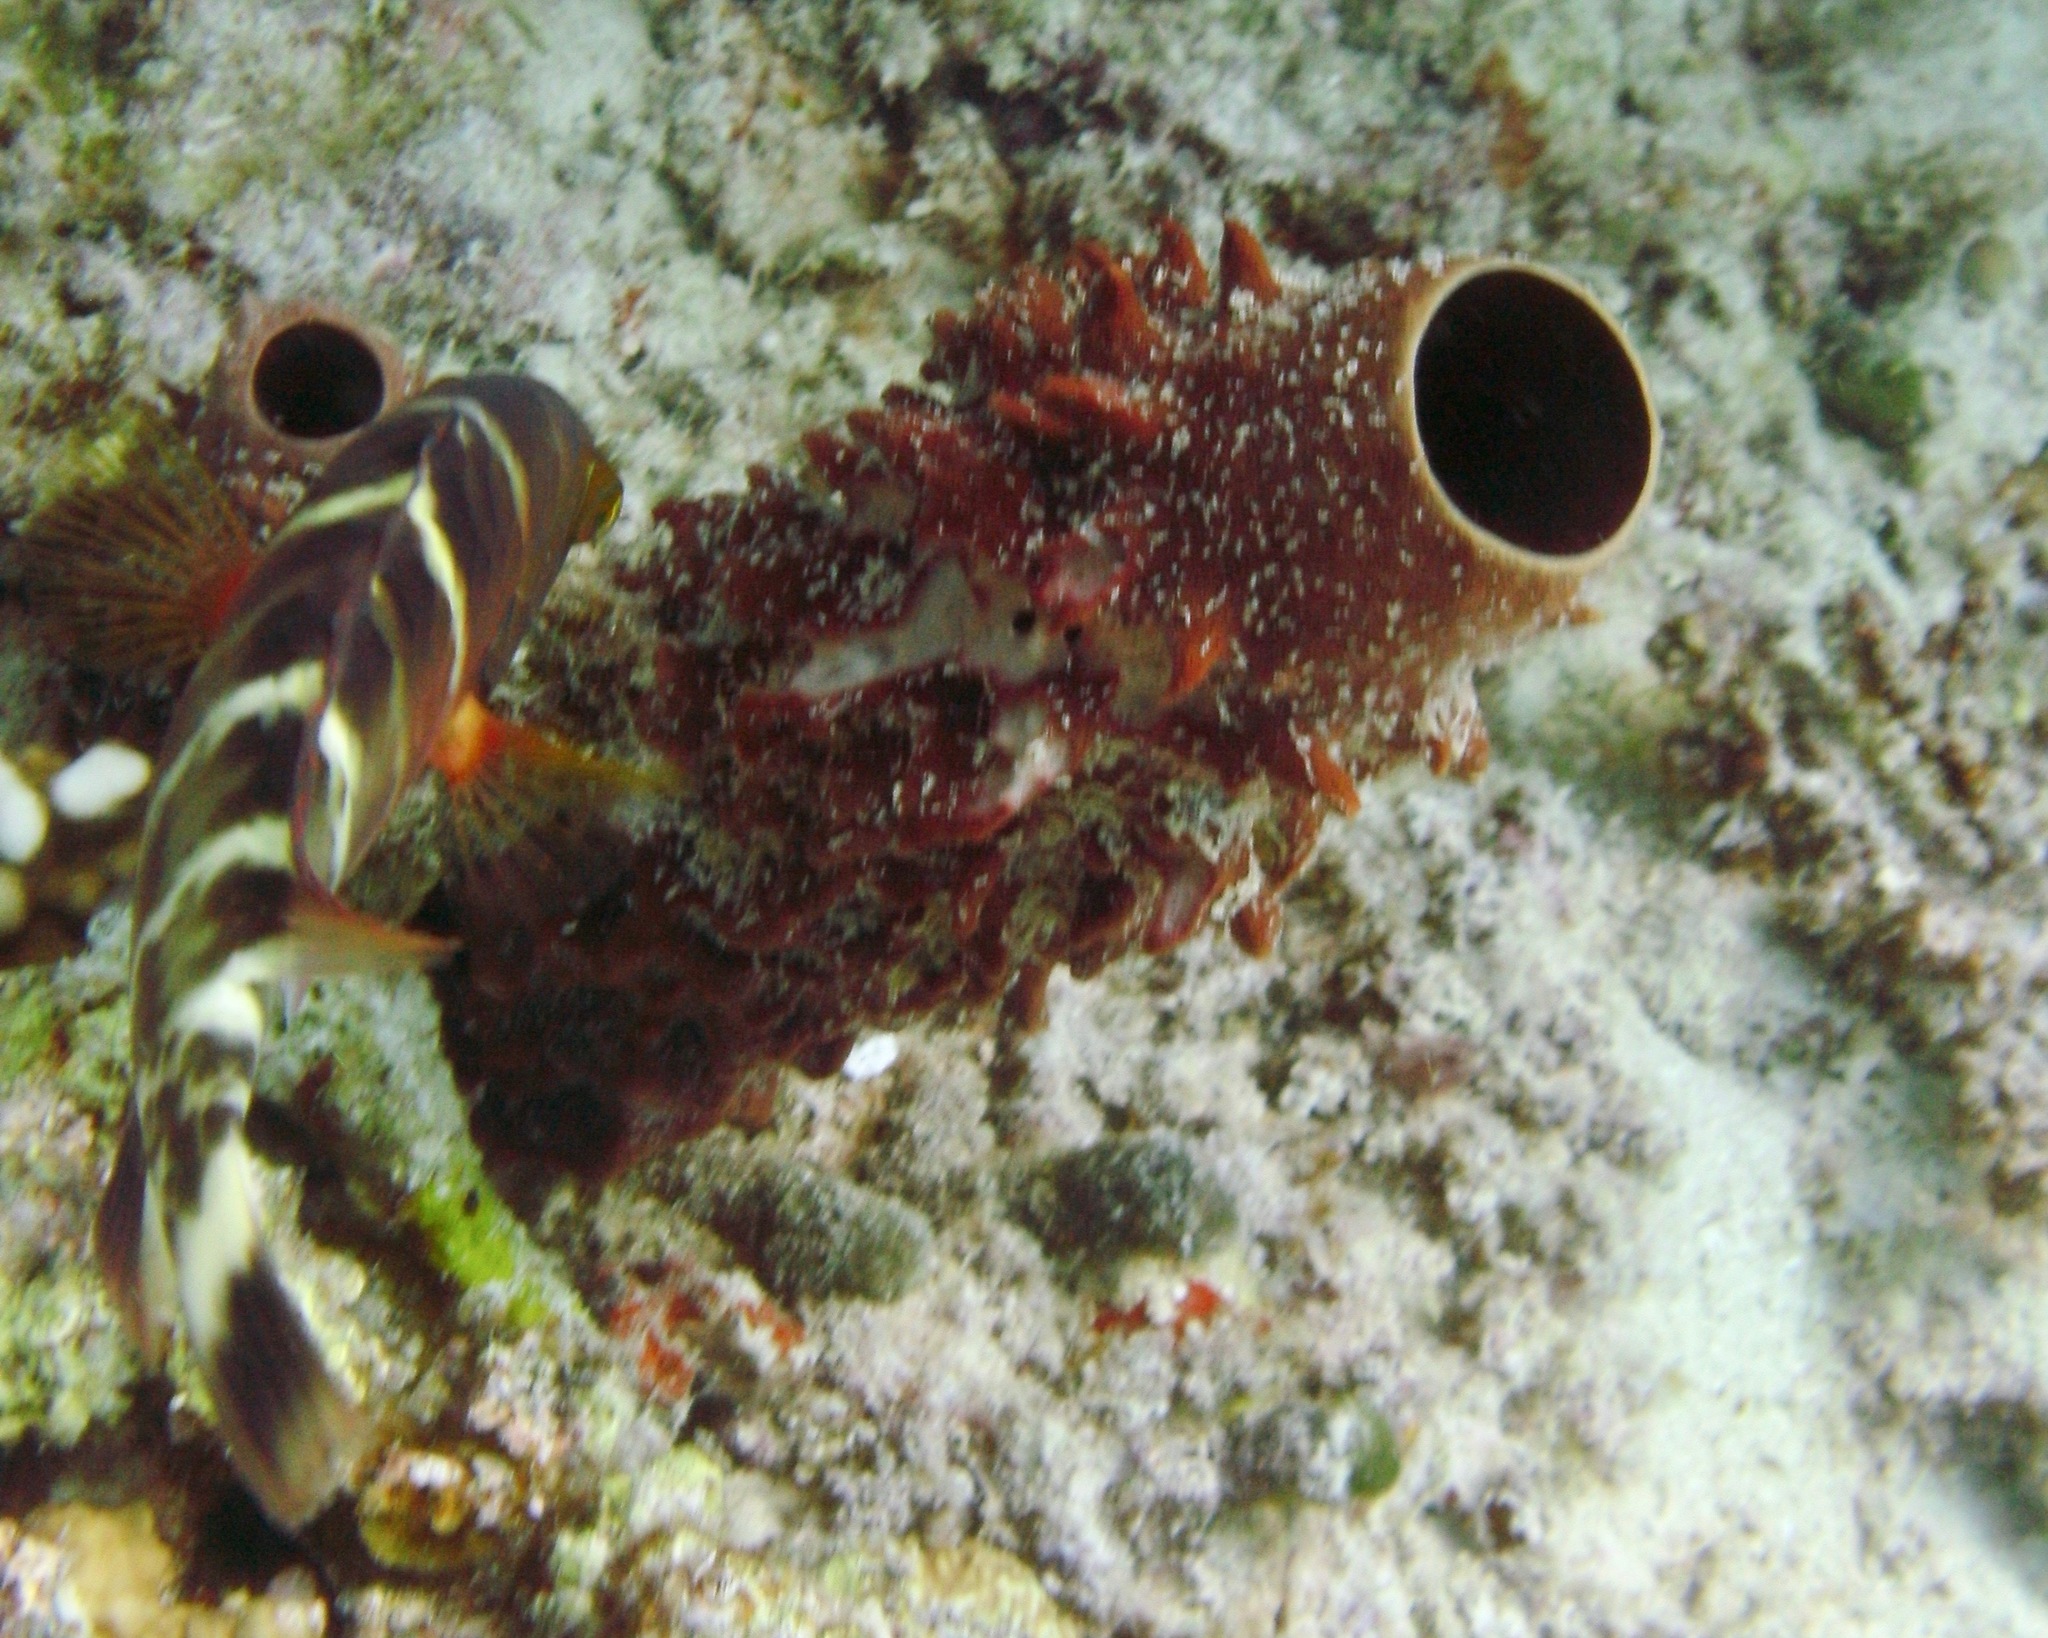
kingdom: Animalia
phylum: Porifera
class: Demospongiae
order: Haplosclerida
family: Callyspongiidae
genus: Callyspongia
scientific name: Callyspongia crassa
